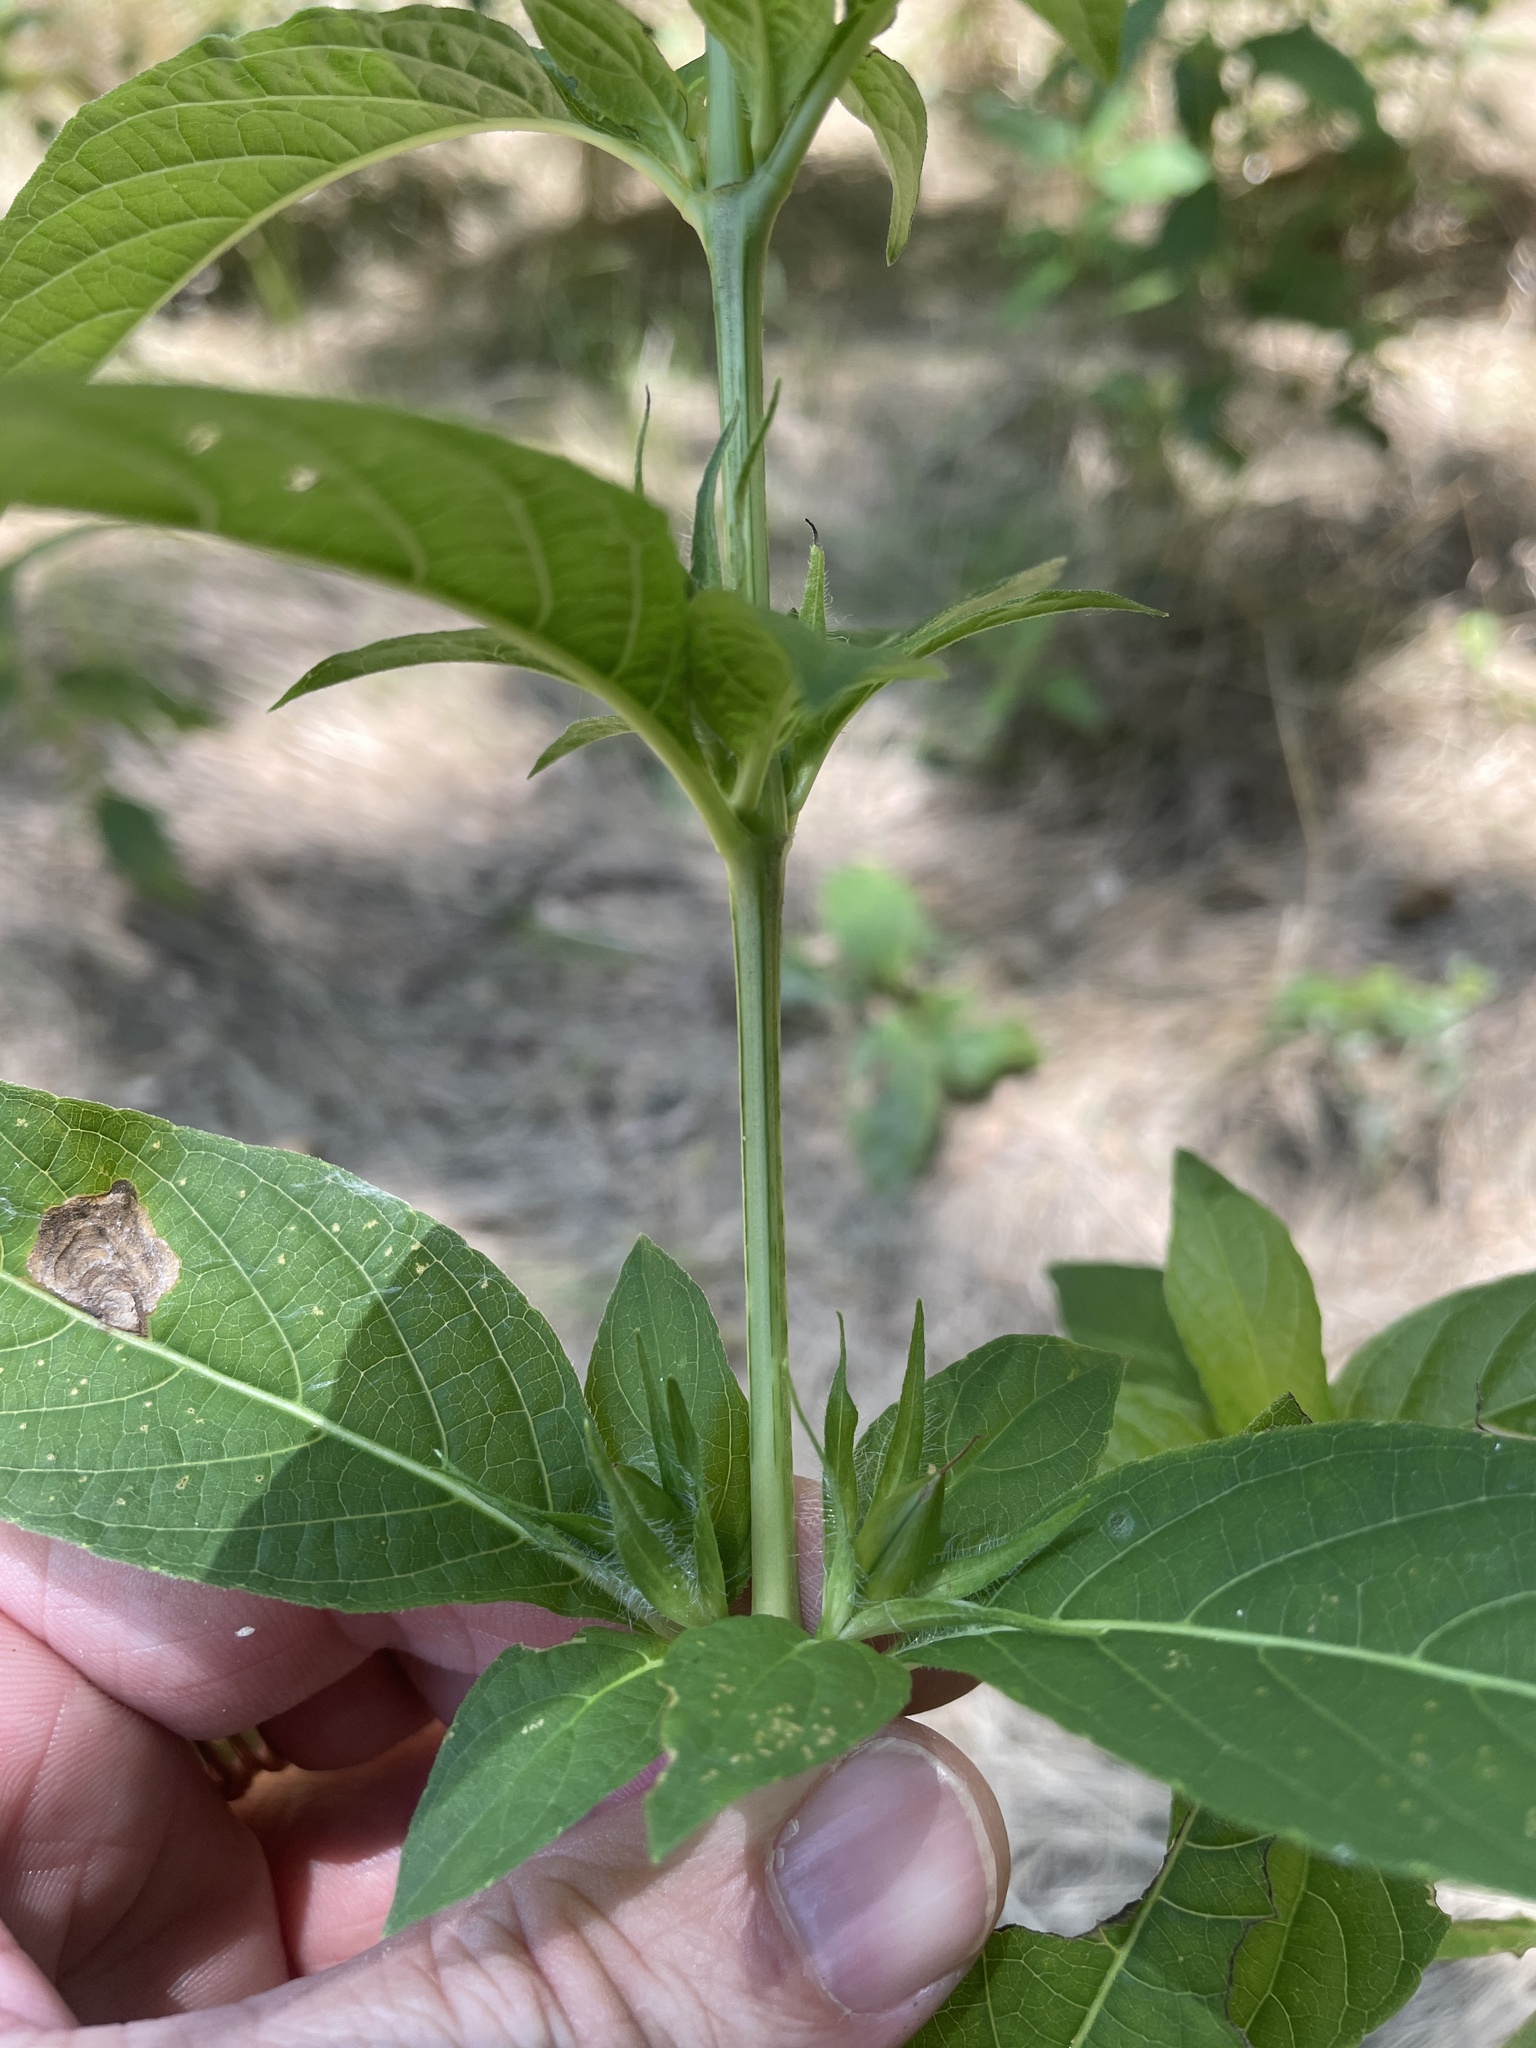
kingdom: Plantae
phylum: Tracheophyta
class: Magnoliopsida
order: Lamiales
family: Acanthaceae
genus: Ruellia
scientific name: Ruellia strepens
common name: Limestone wild petunia
